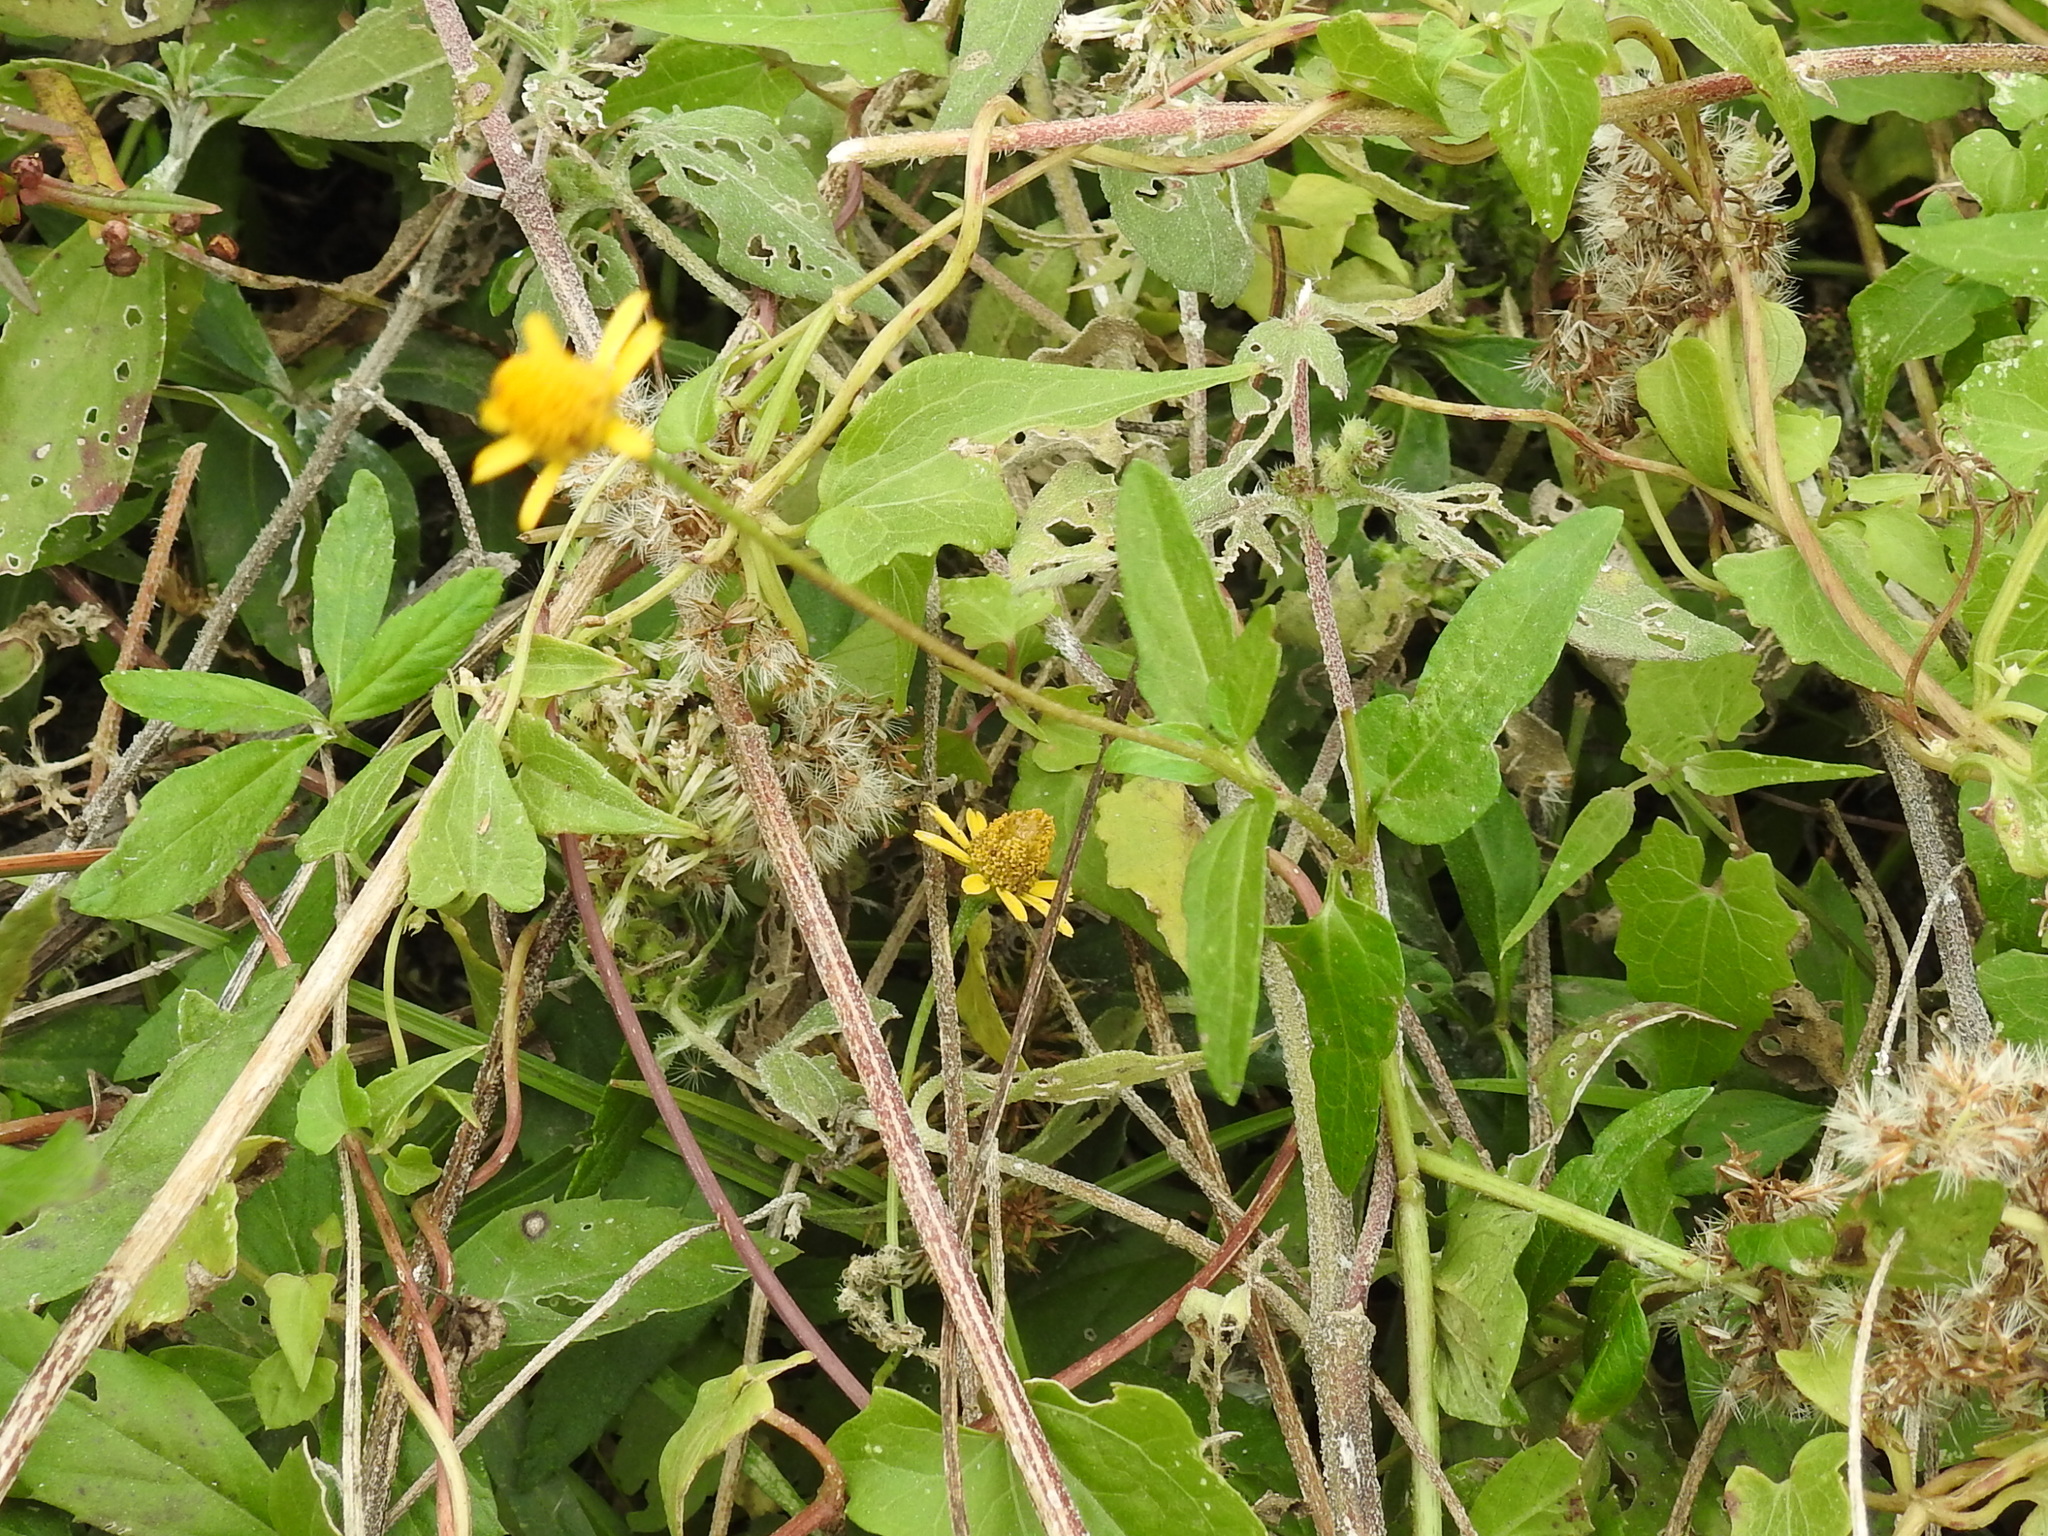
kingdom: Plantae
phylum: Tracheophyta
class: Magnoliopsida
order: Asterales
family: Asteraceae
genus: Acmella
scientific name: Acmella repens
